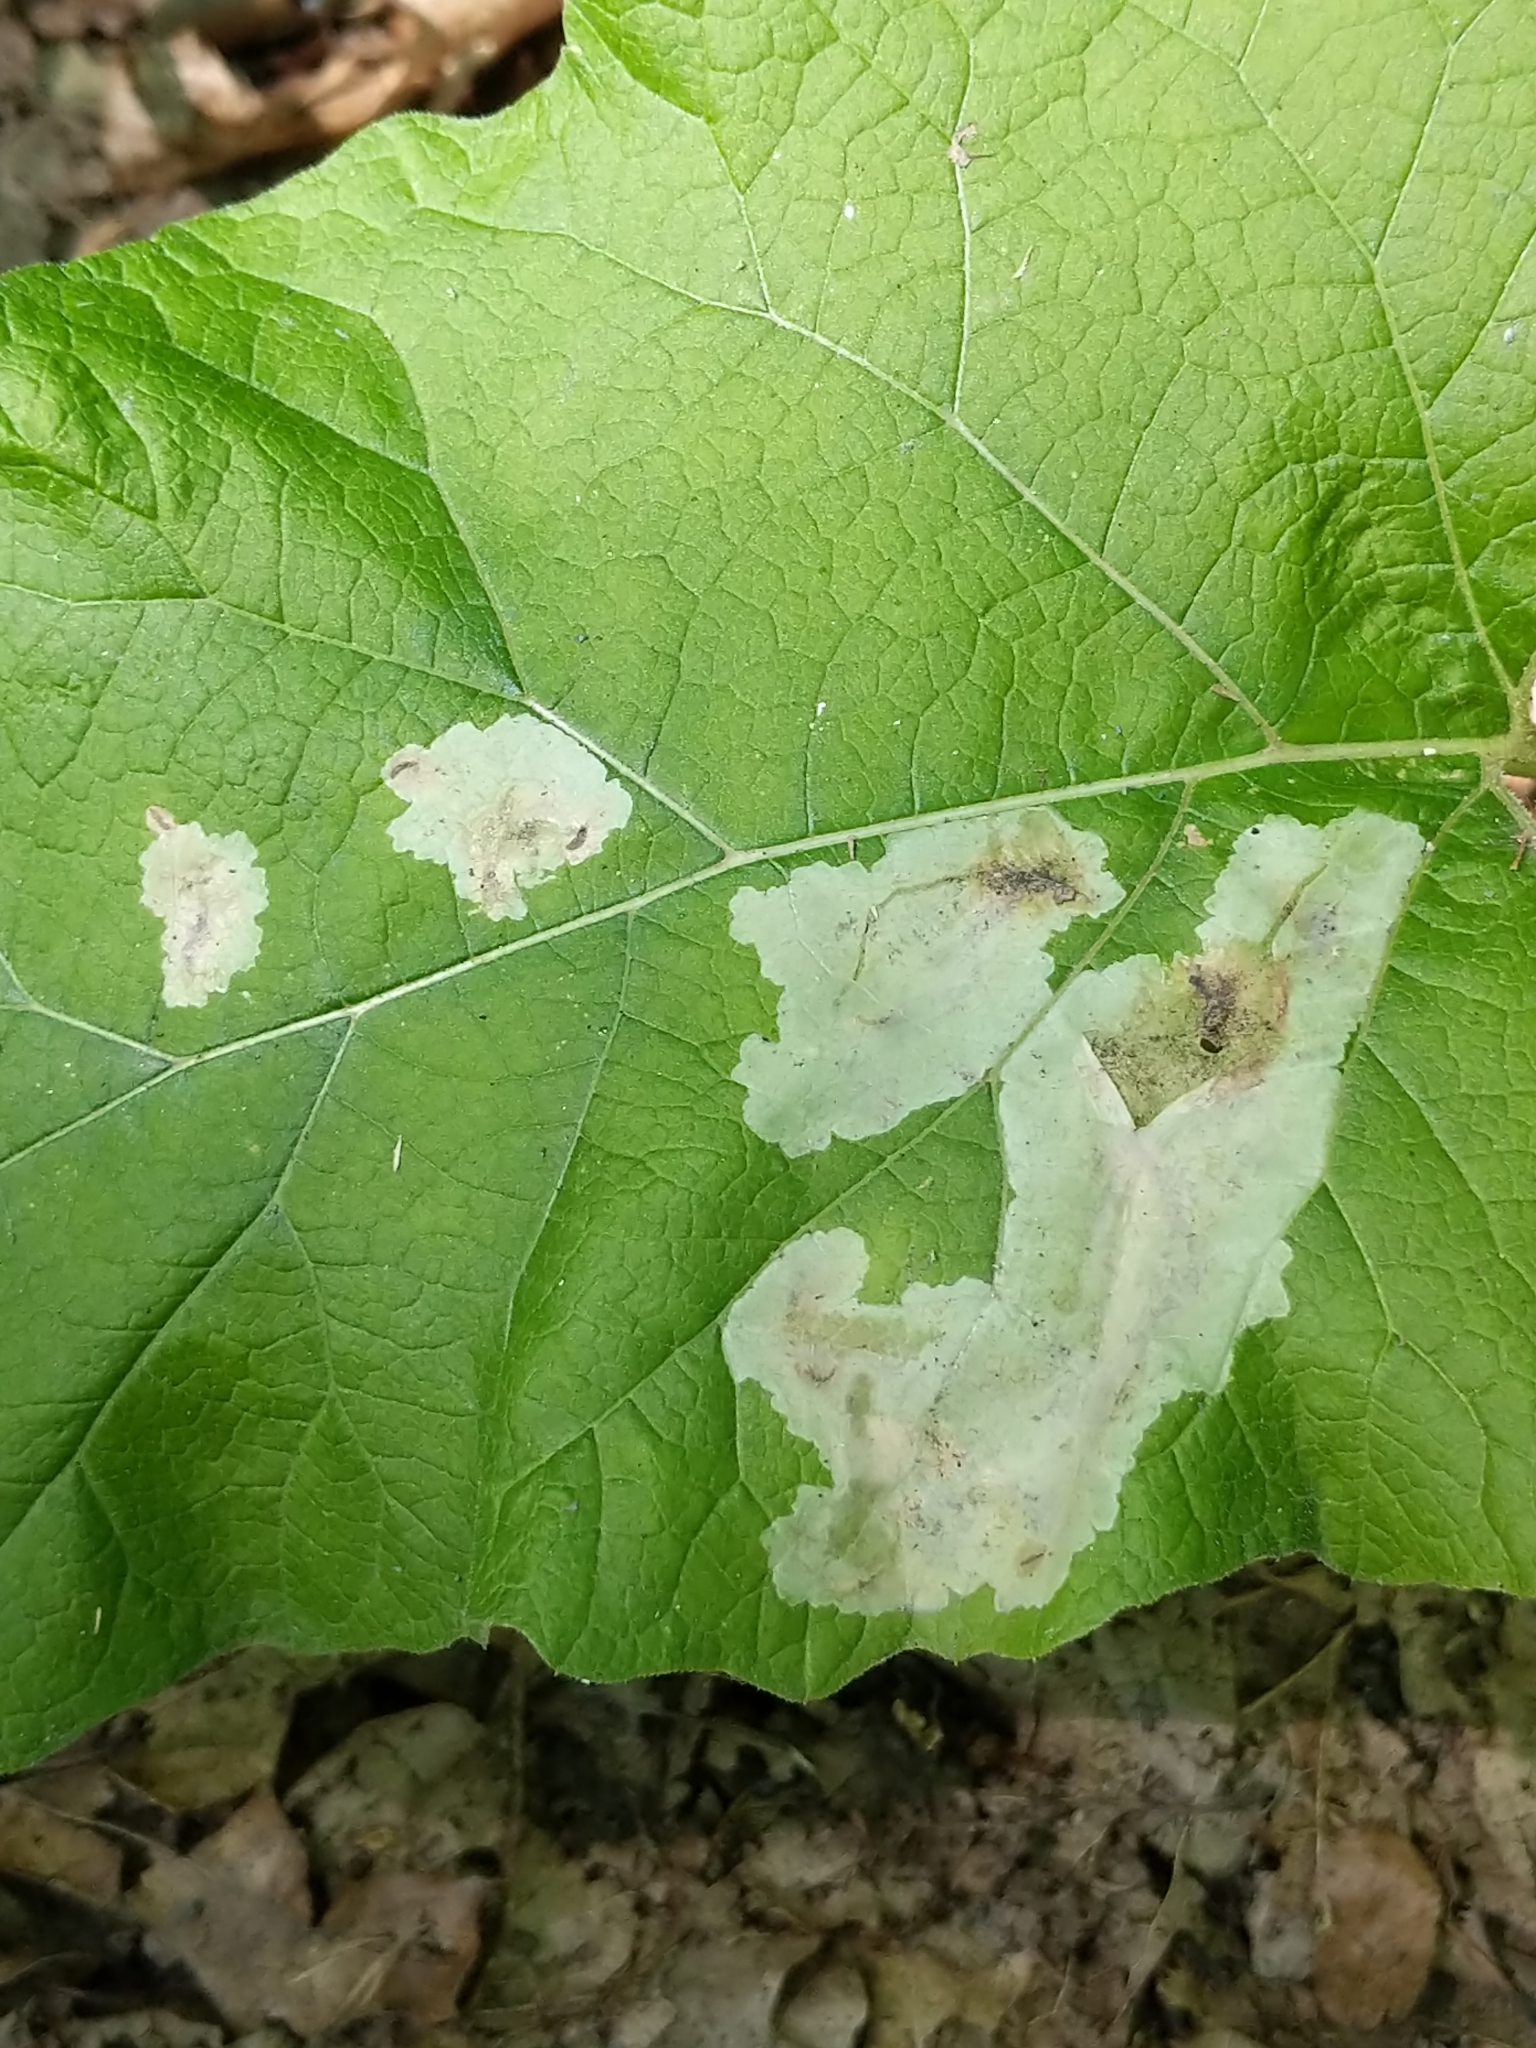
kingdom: Animalia
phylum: Arthropoda
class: Insecta
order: Diptera
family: Agromyzidae
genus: Calycomyza
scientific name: Calycomyza flavinotum
